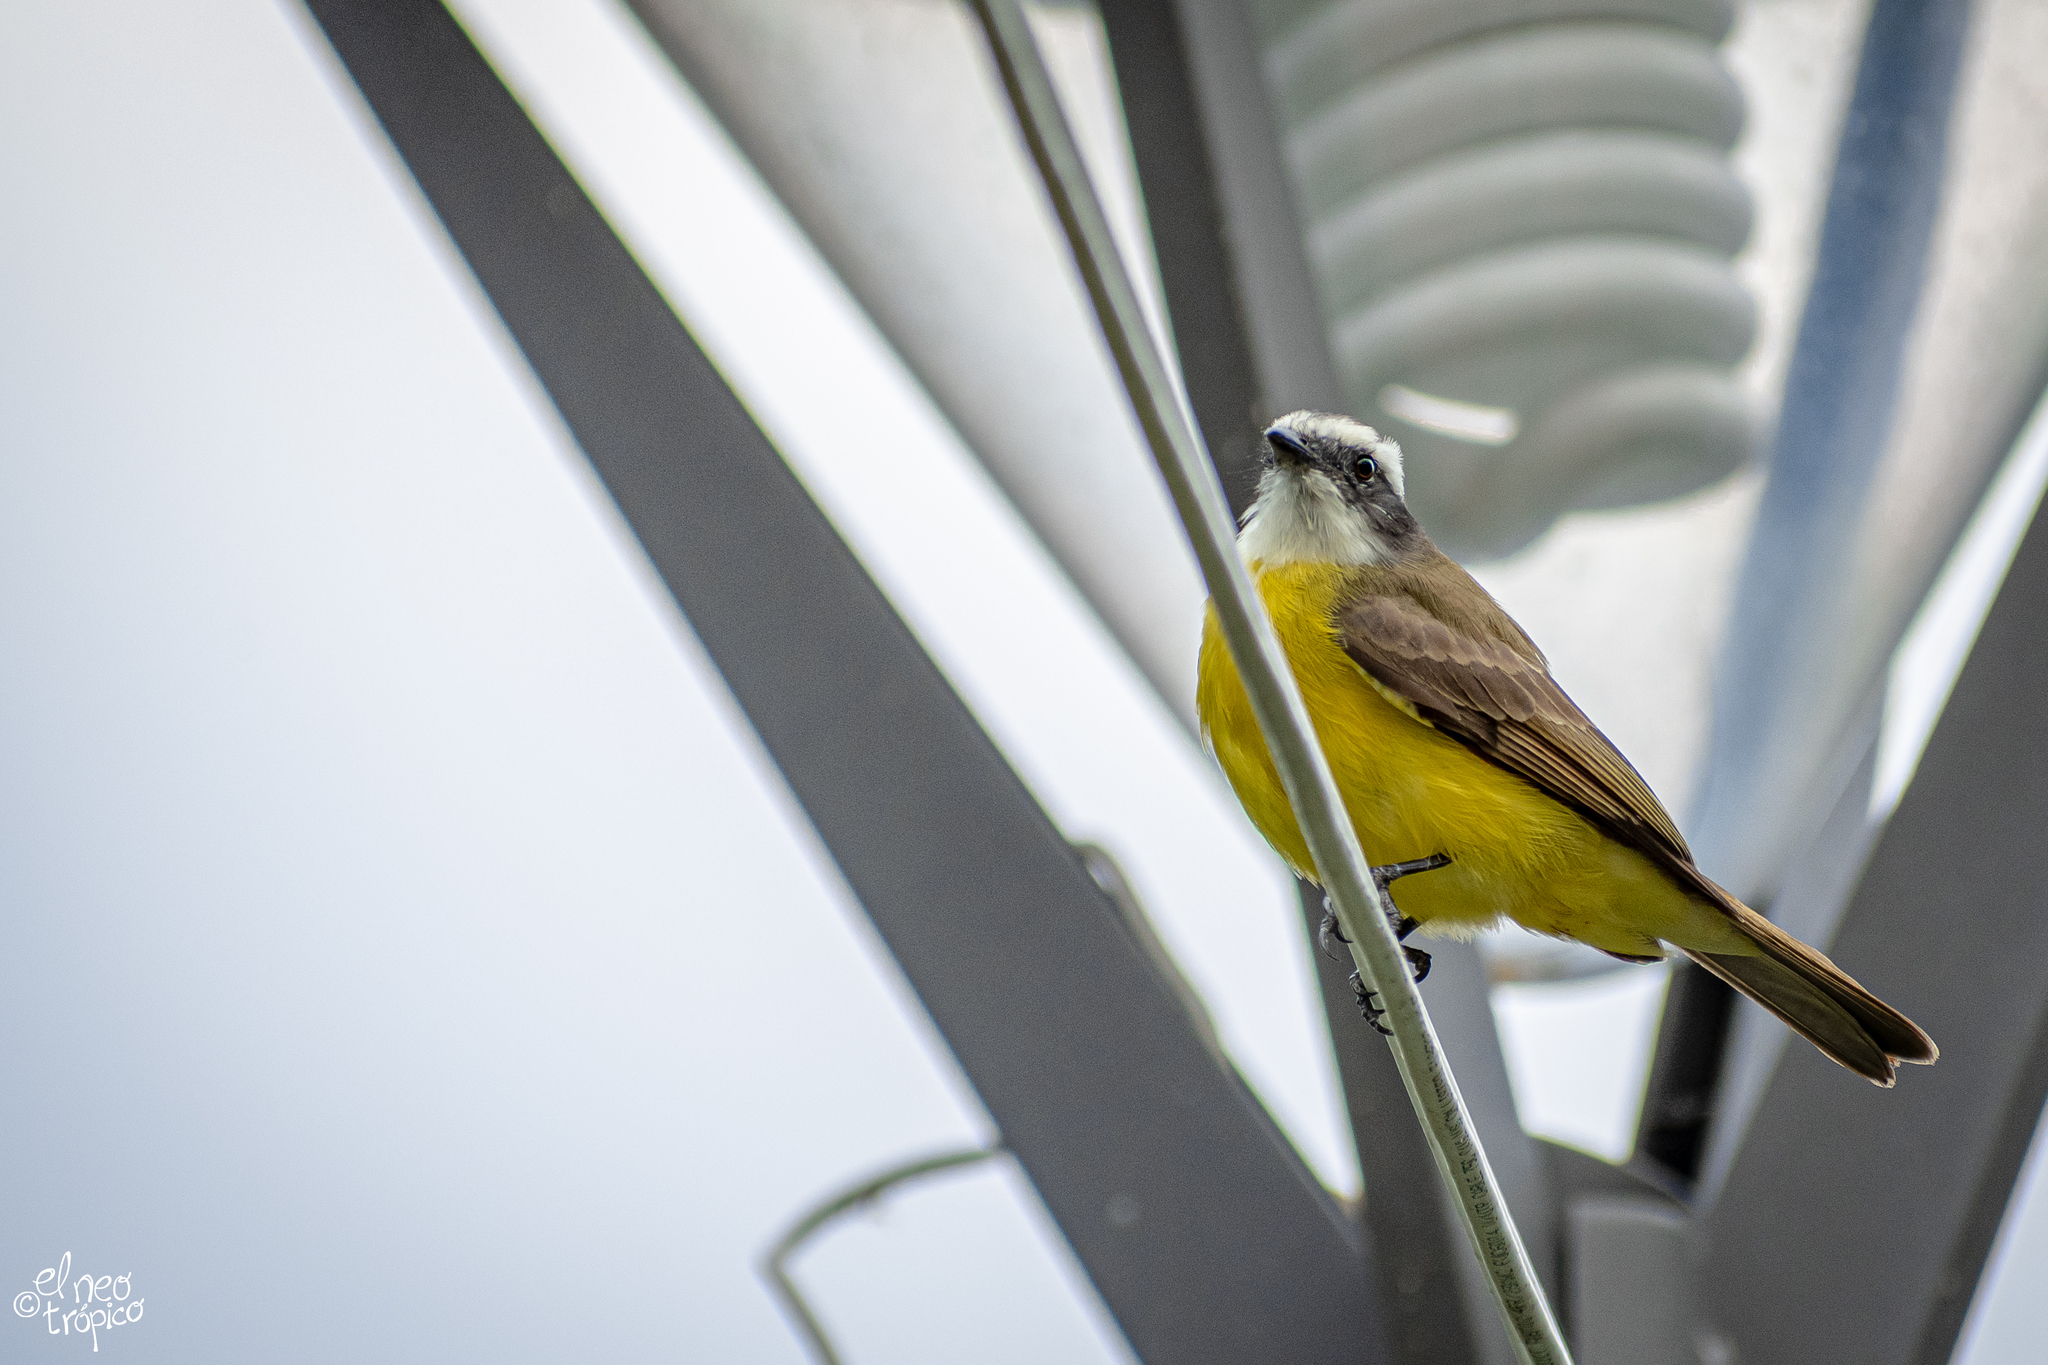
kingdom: Animalia
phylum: Chordata
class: Aves
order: Passeriformes
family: Tyrannidae
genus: Myiozetetes
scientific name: Myiozetetes similis
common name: Social flycatcher
